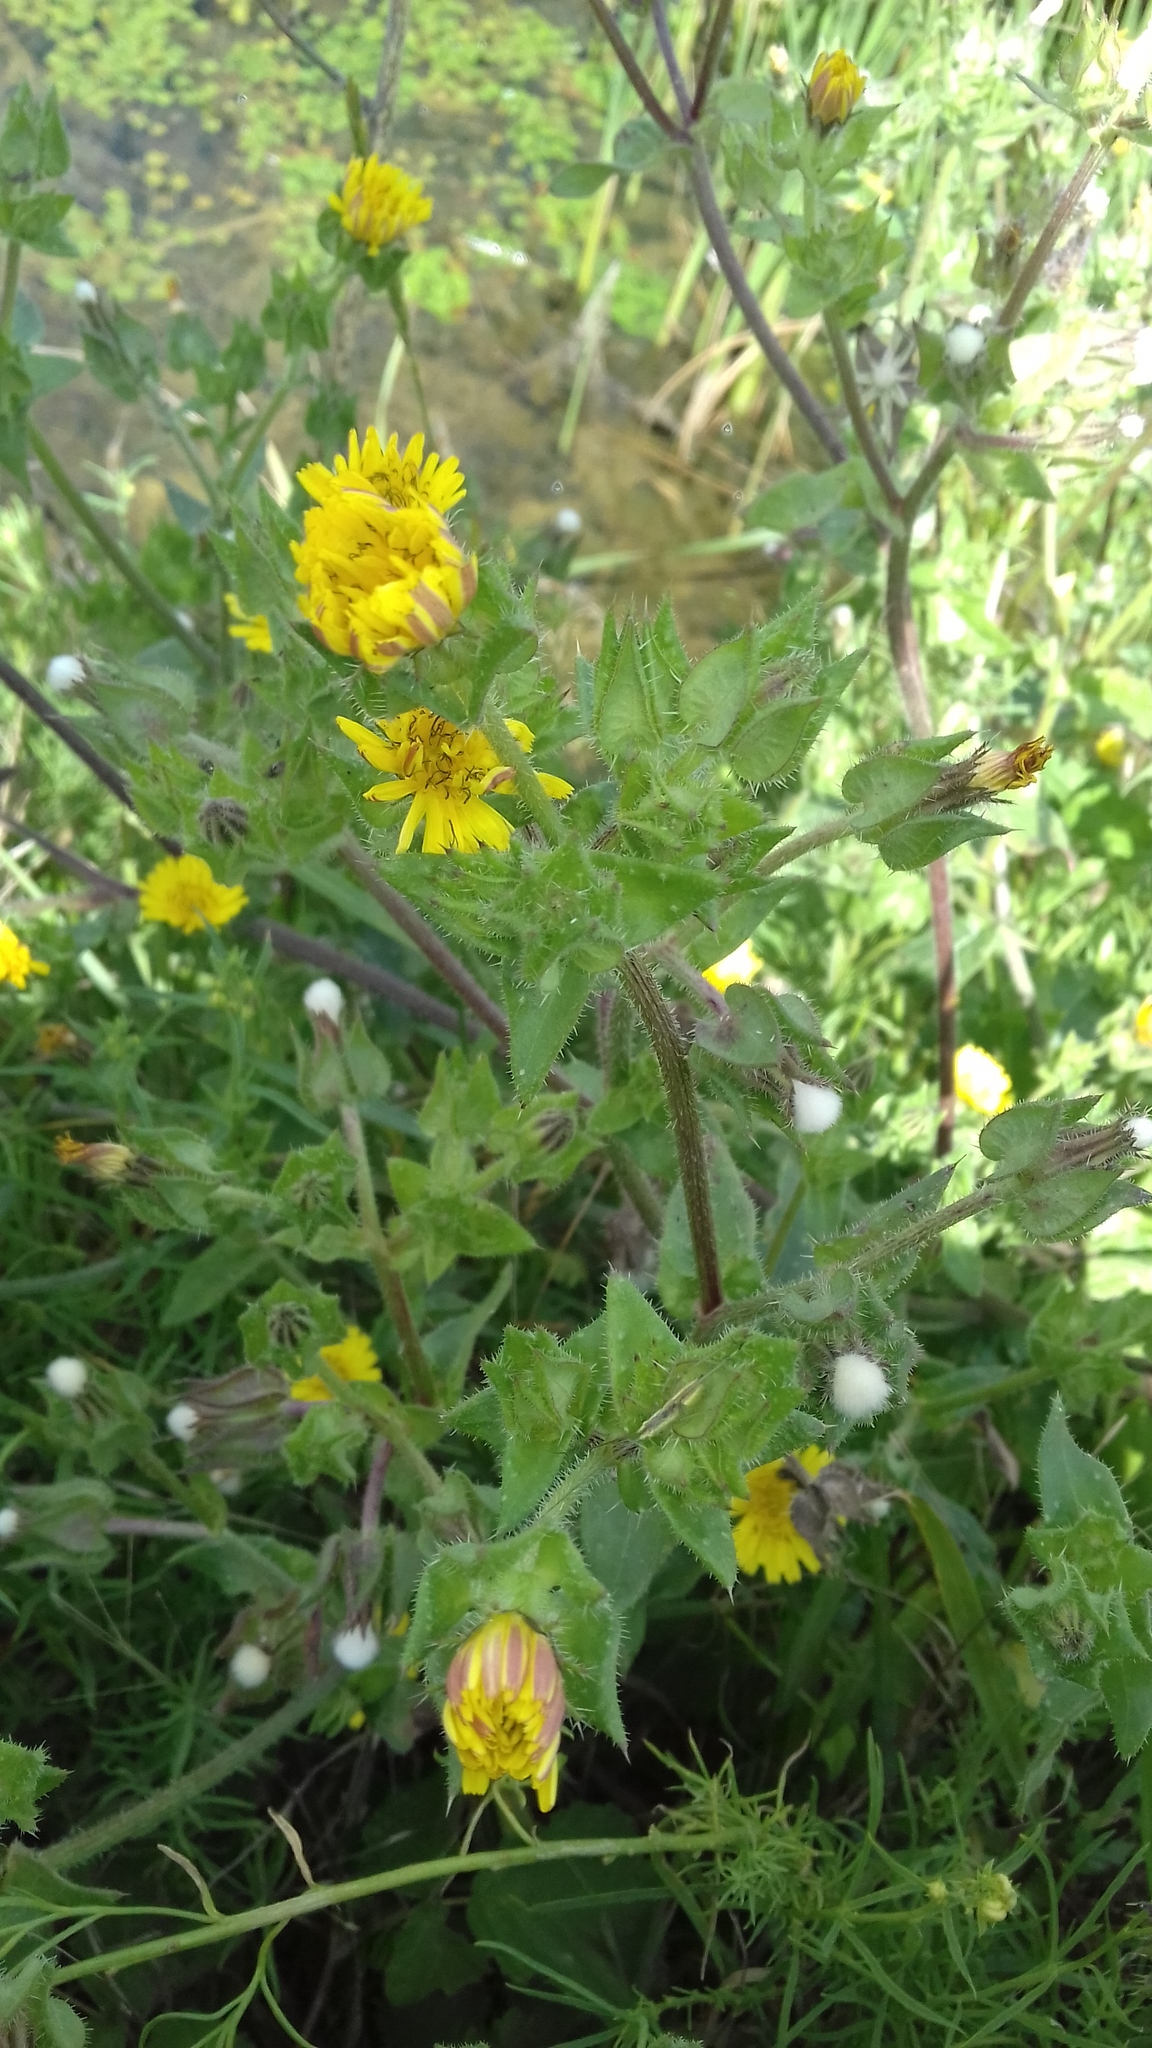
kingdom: Plantae
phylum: Tracheophyta
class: Magnoliopsida
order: Asterales
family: Asteraceae
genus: Helminthotheca
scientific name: Helminthotheca echioides
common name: Ox-tongue
